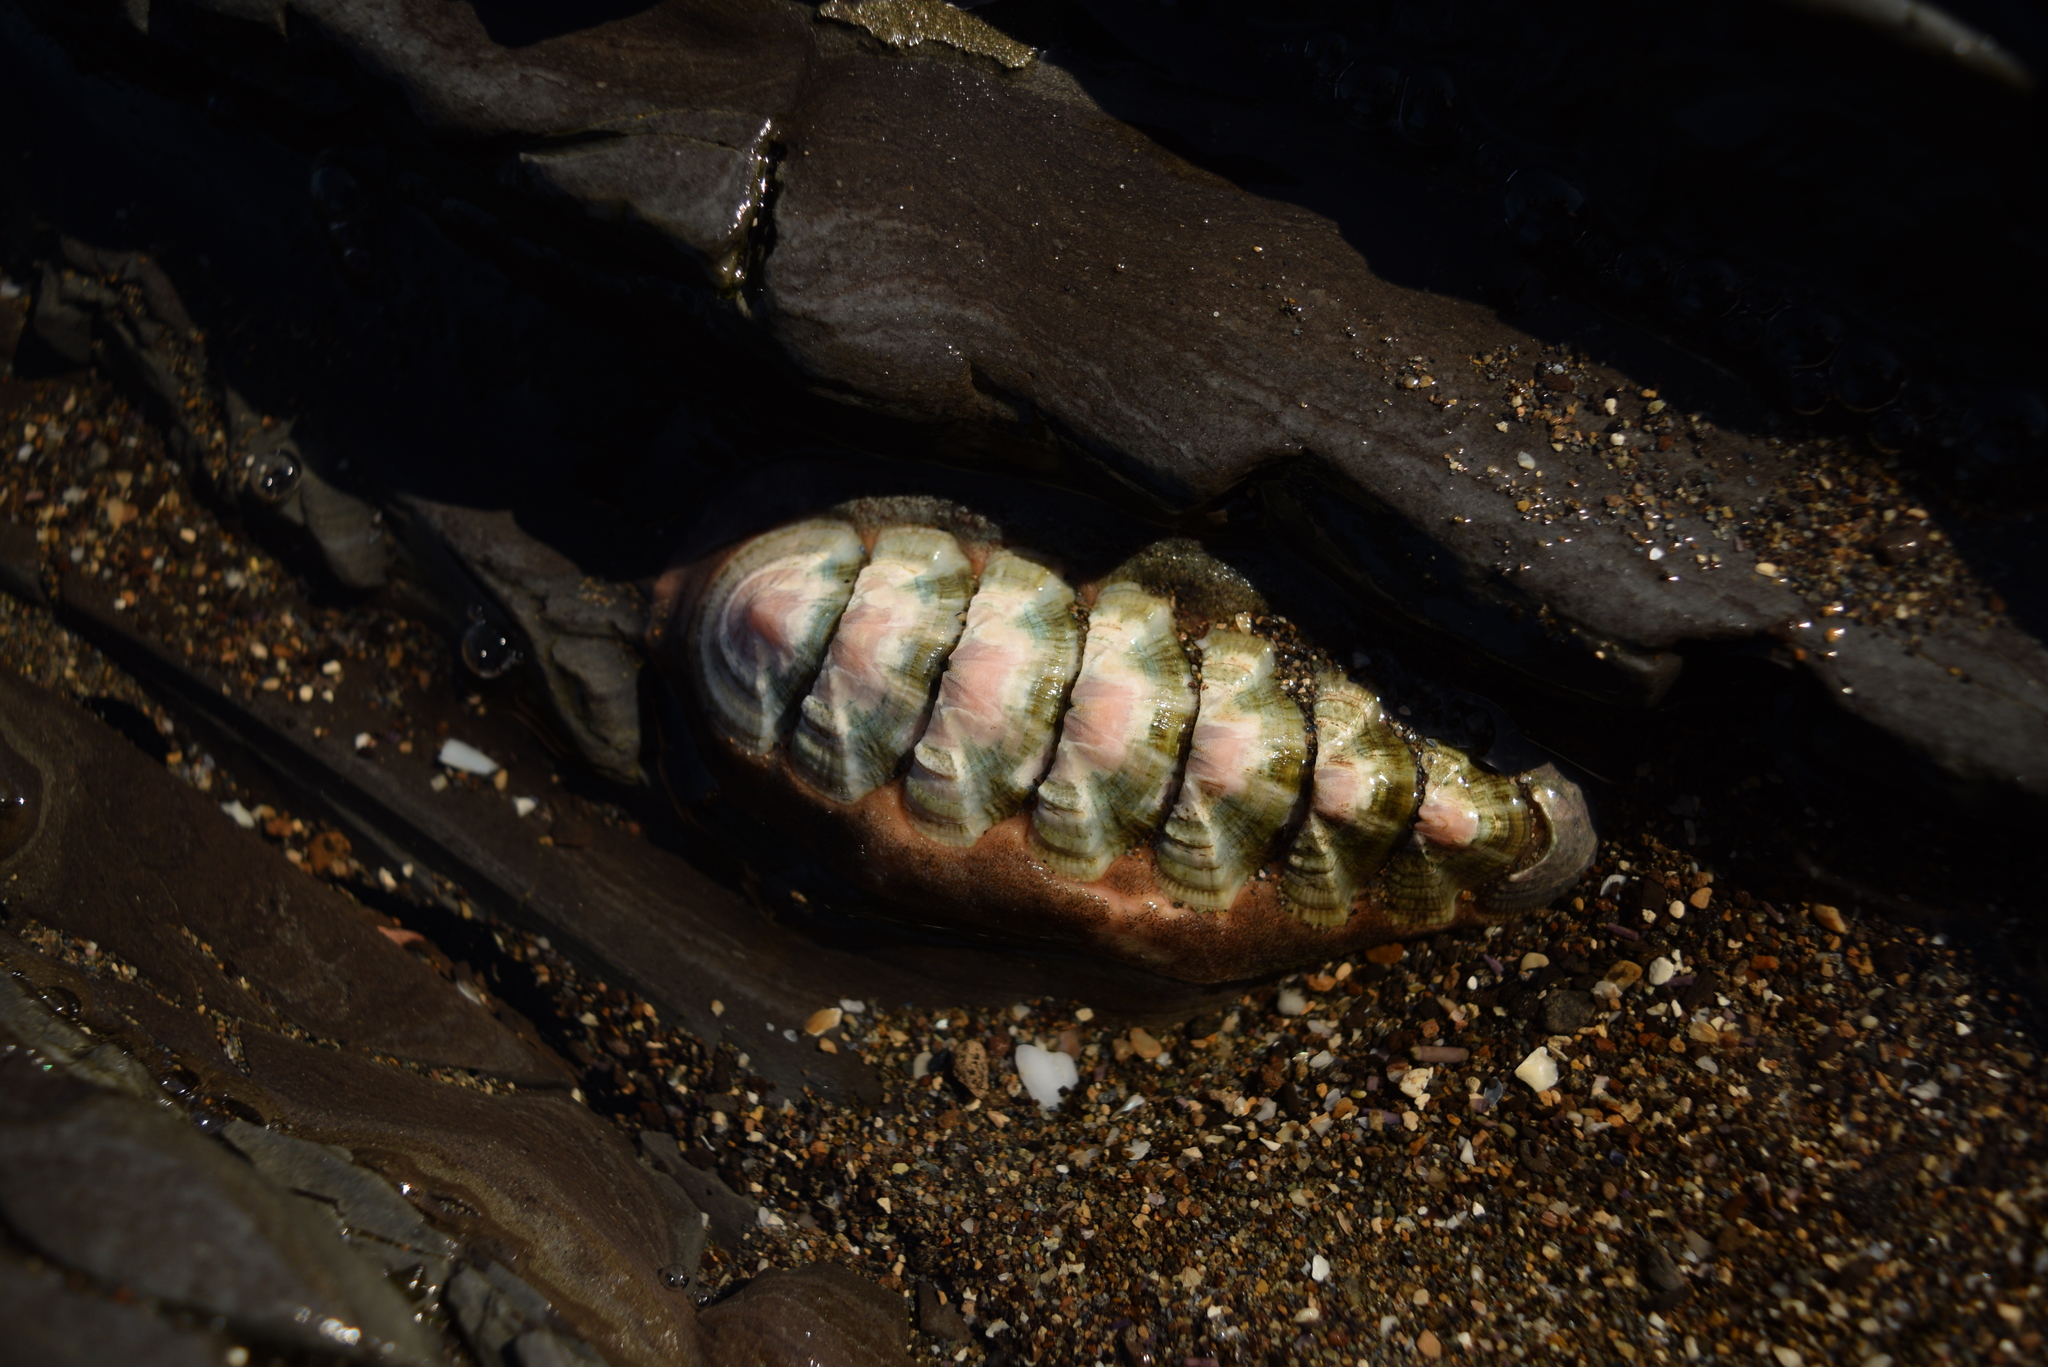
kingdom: Animalia
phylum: Mollusca
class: Polyplacophora
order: Chitonida
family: Ischnochitonidae
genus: Stenoplax
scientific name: Stenoplax conspicua
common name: Conspicuous chiton
